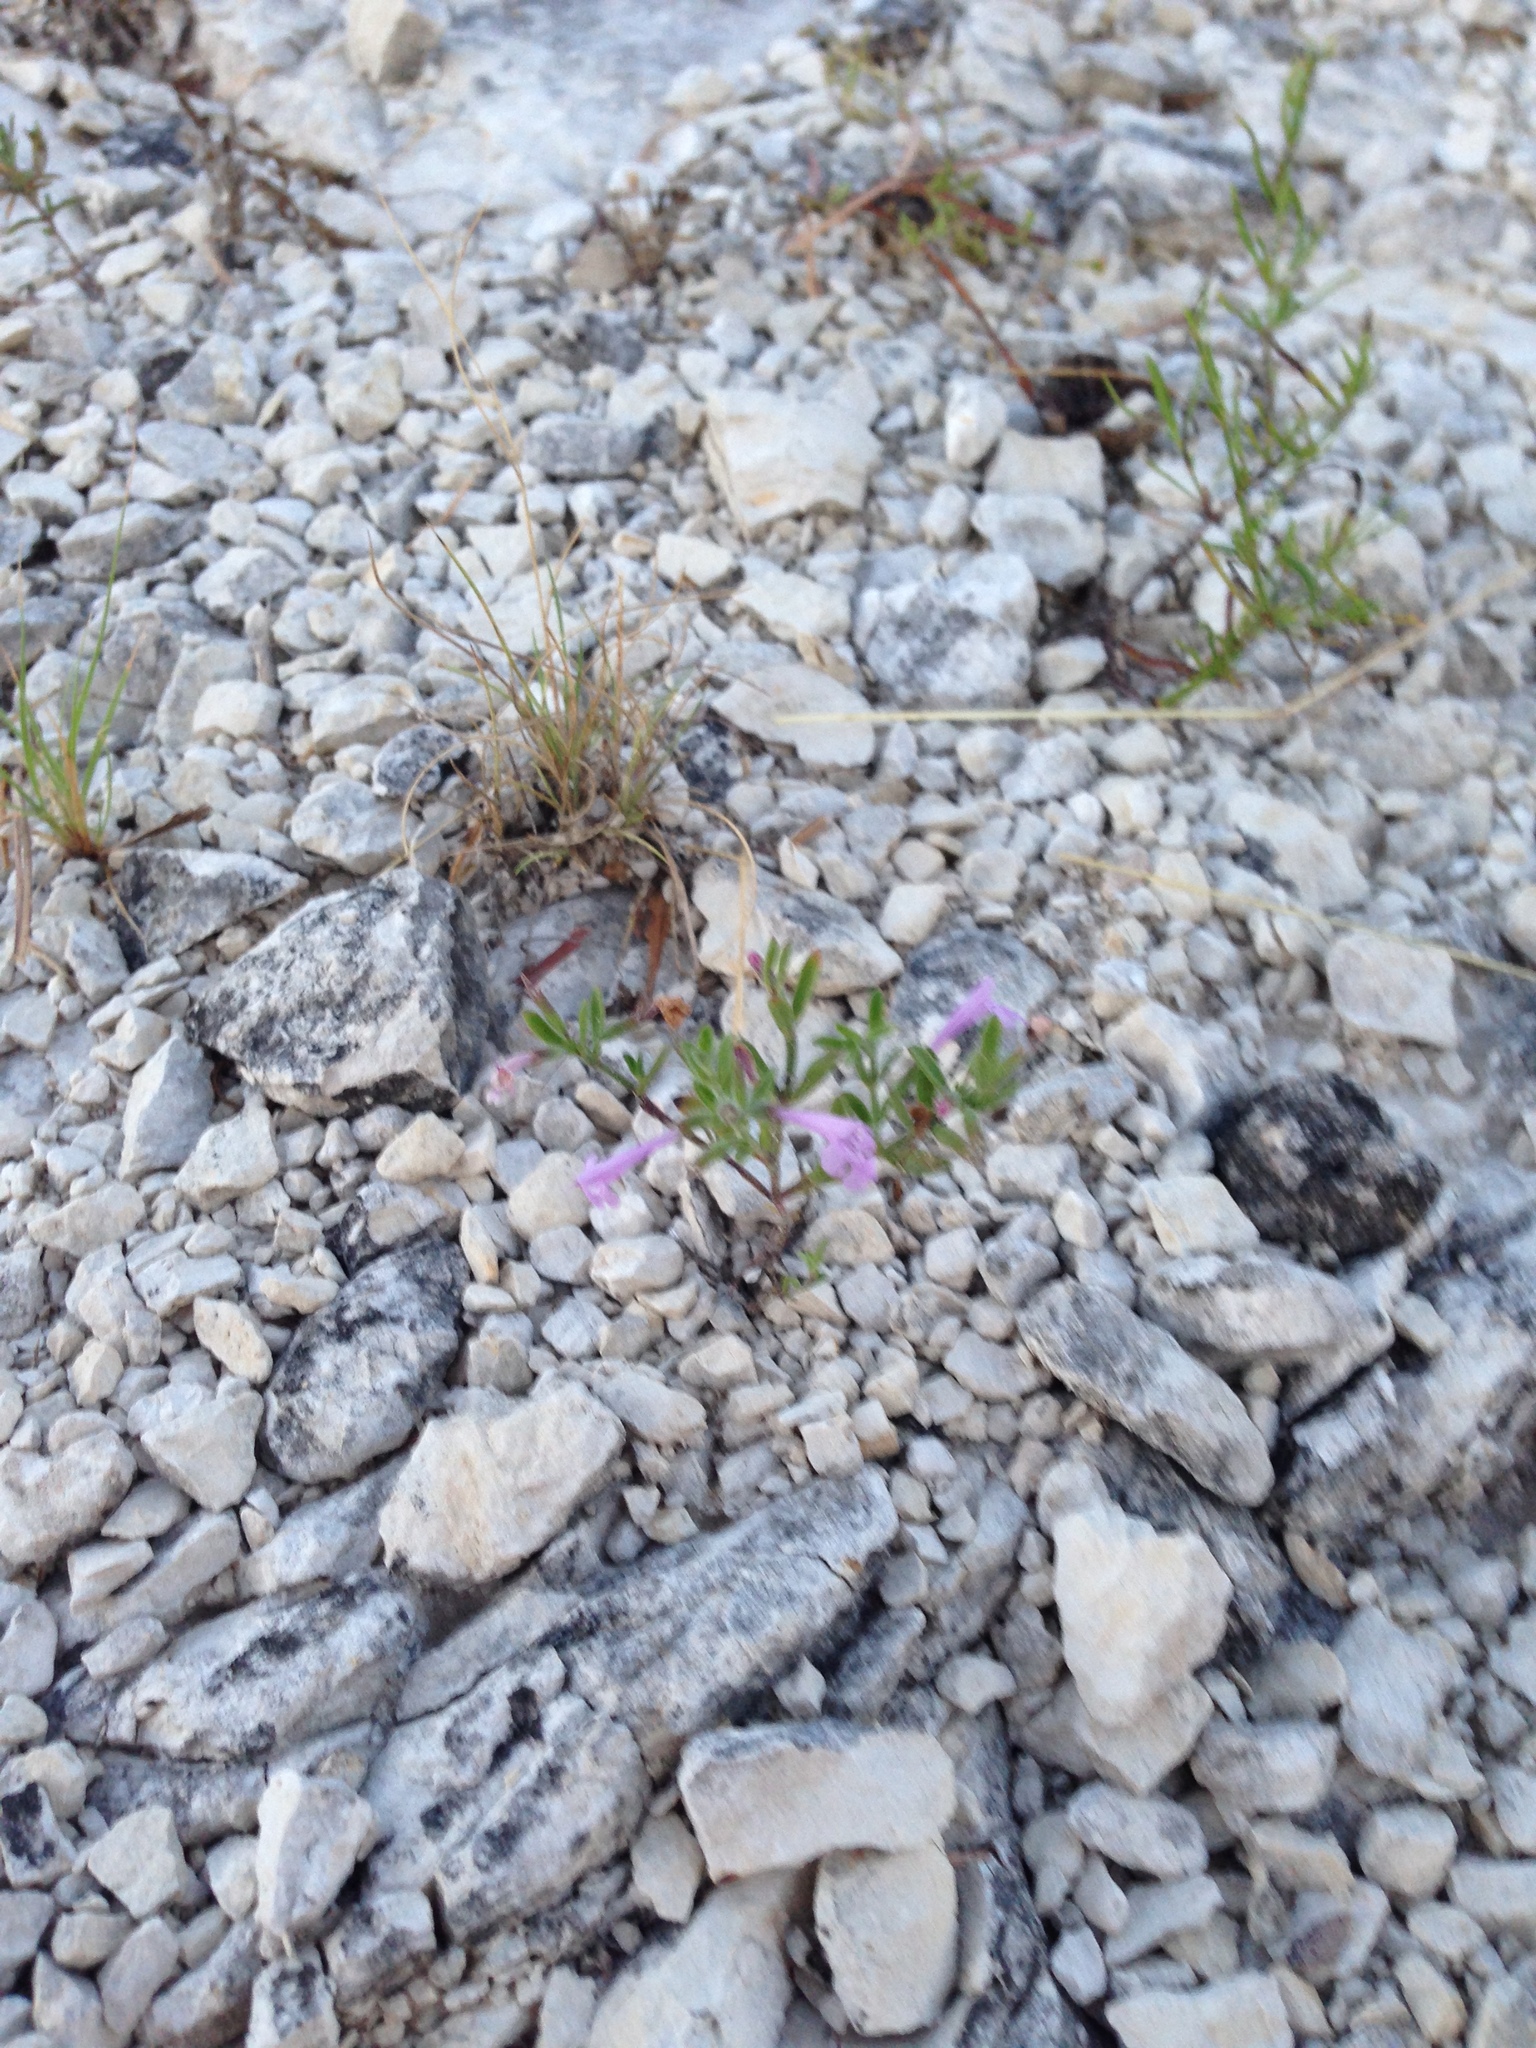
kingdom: Plantae
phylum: Tracheophyta
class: Magnoliopsida
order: Lamiales
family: Lamiaceae
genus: Hedeoma
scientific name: Hedeoma
